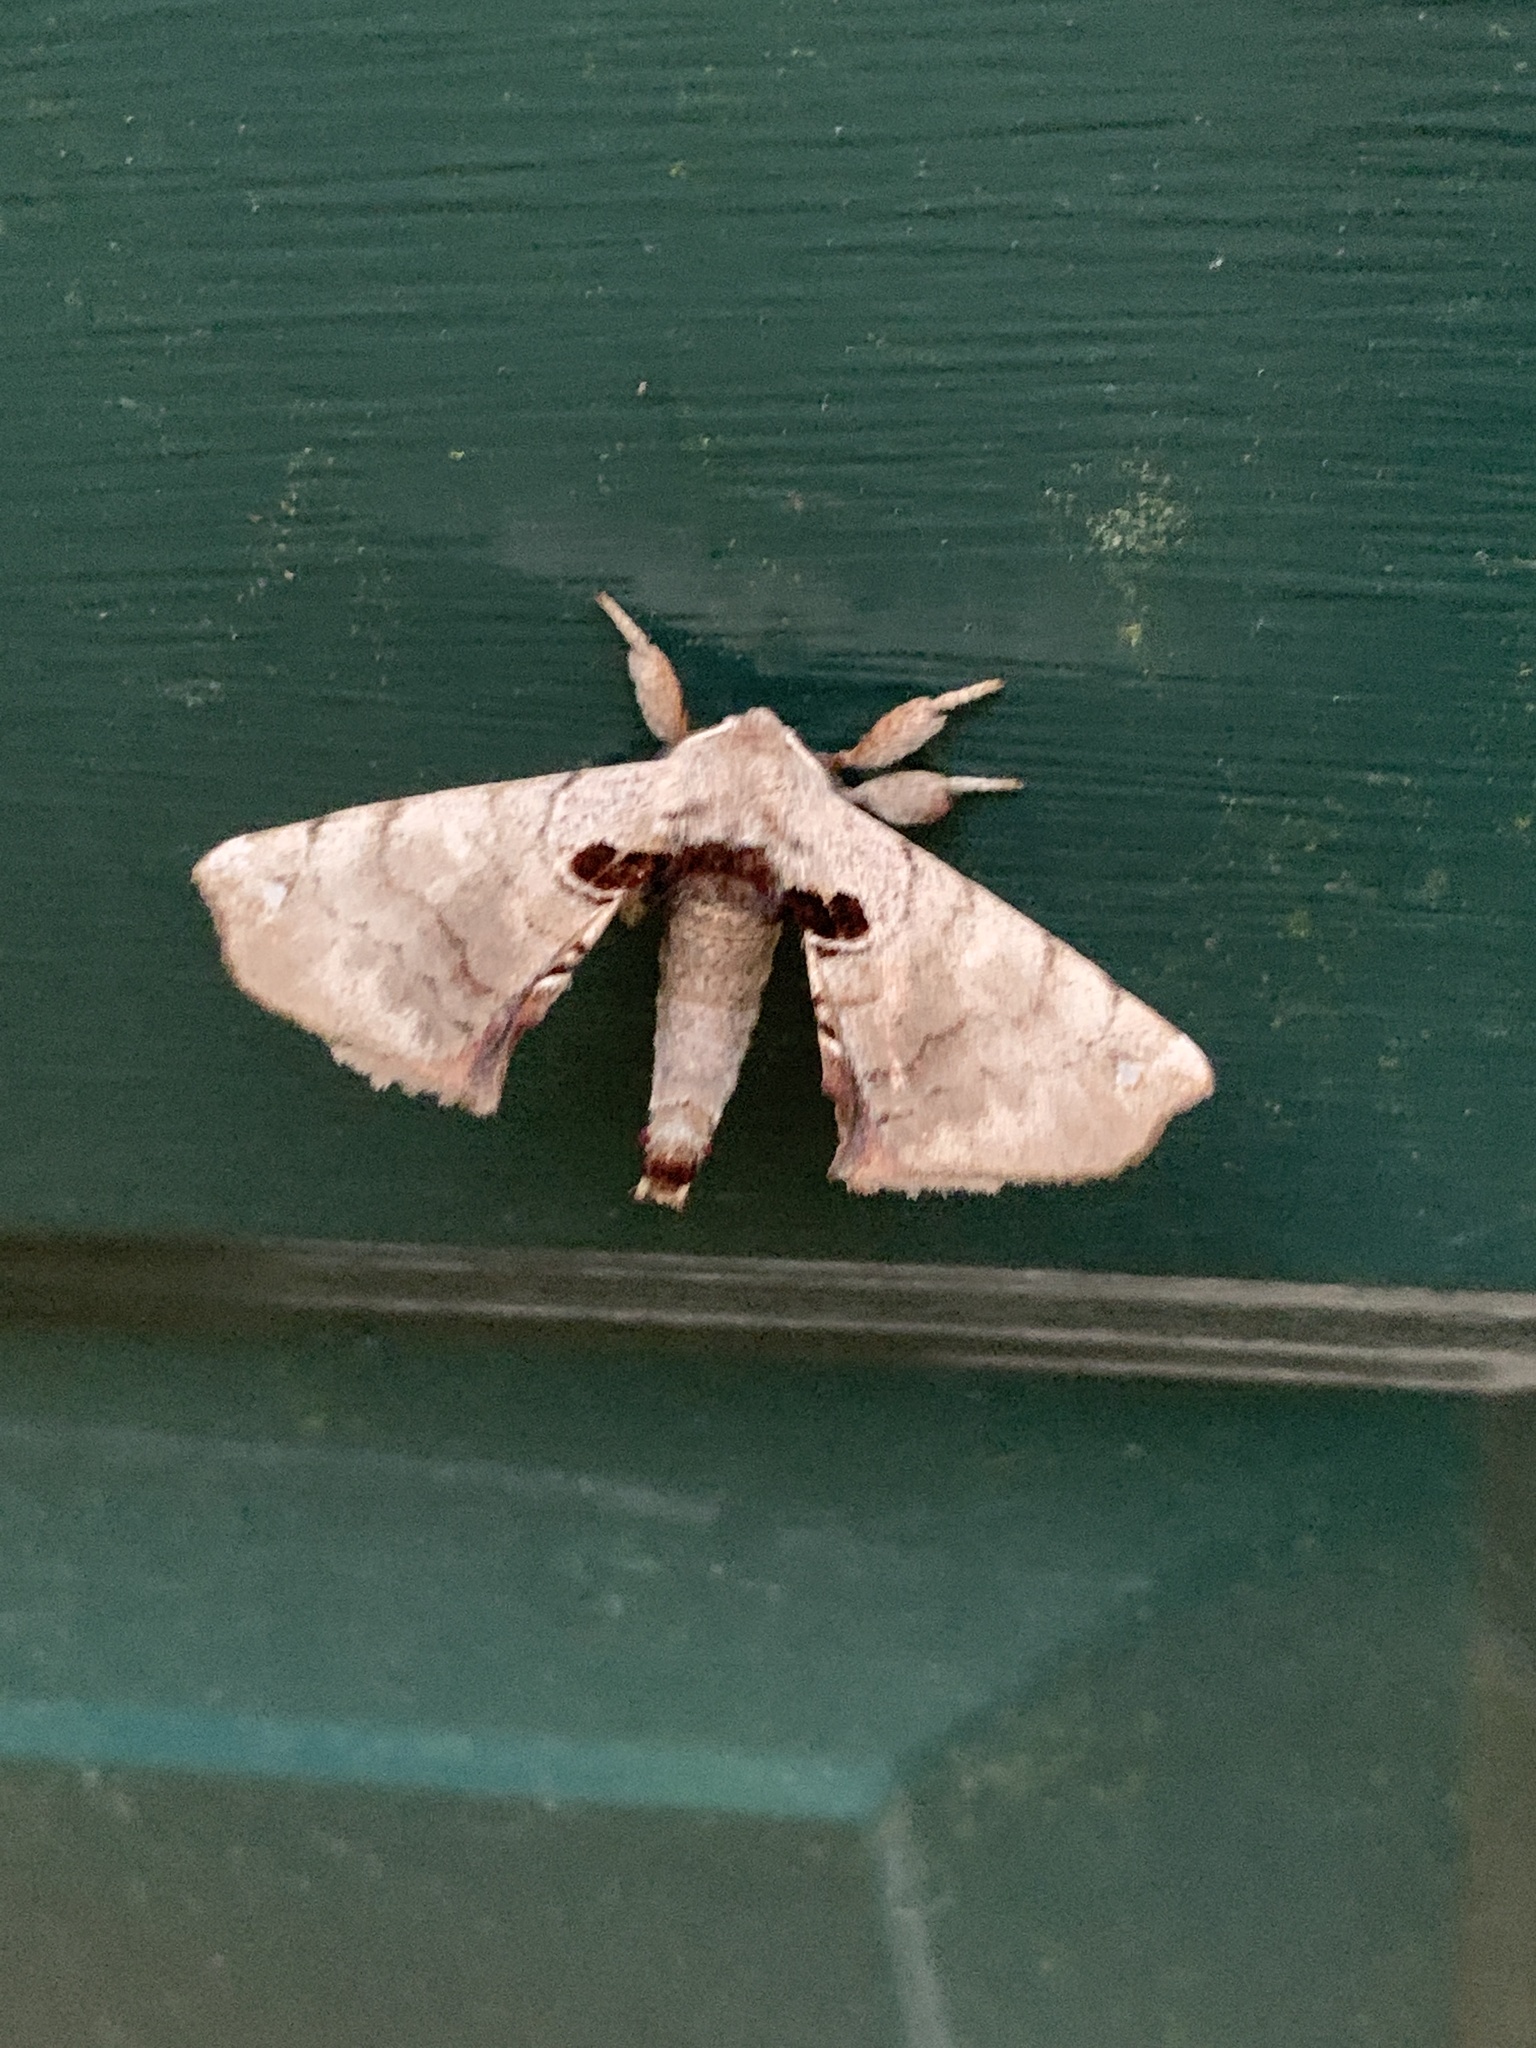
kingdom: Animalia
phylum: Arthropoda
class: Insecta
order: Lepidoptera
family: Apatelodidae
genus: Hygrochroa
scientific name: Hygrochroa Apatelodes torrefacta
